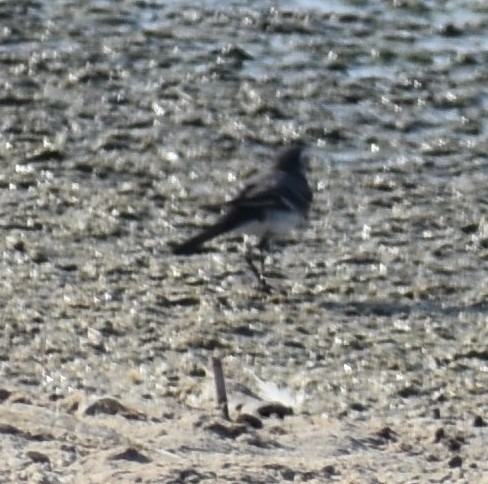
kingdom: Animalia
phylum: Chordata
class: Aves
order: Passeriformes
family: Motacillidae
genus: Motacilla
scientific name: Motacilla alba
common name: White wagtail
